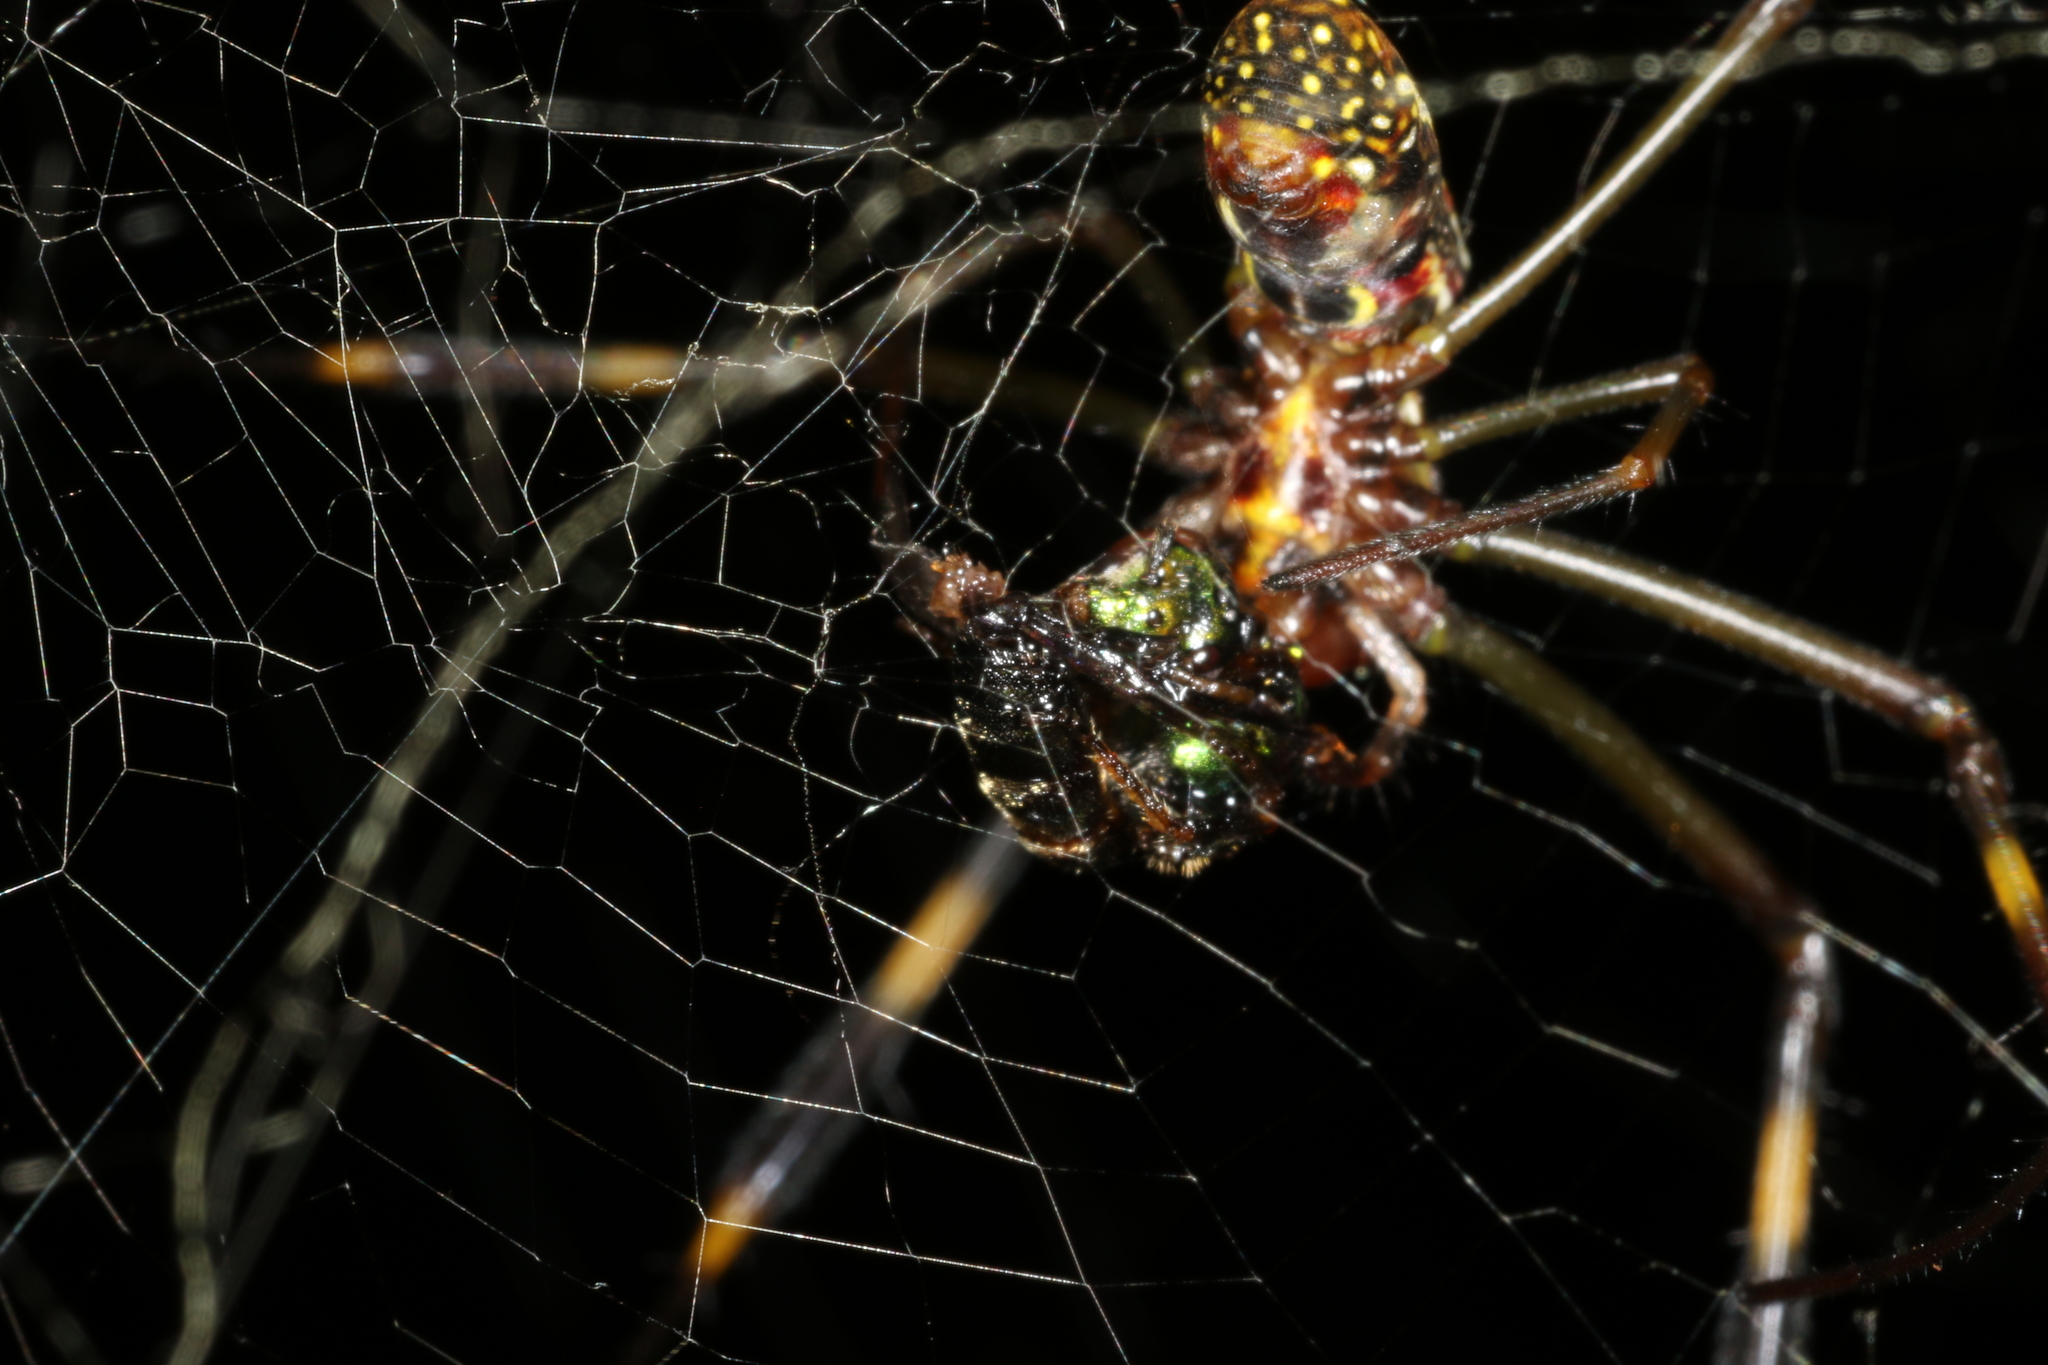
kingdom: Animalia
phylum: Arthropoda
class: Arachnida
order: Araneae
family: Araneidae
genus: Trichonephila
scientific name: Trichonephila clavipes
